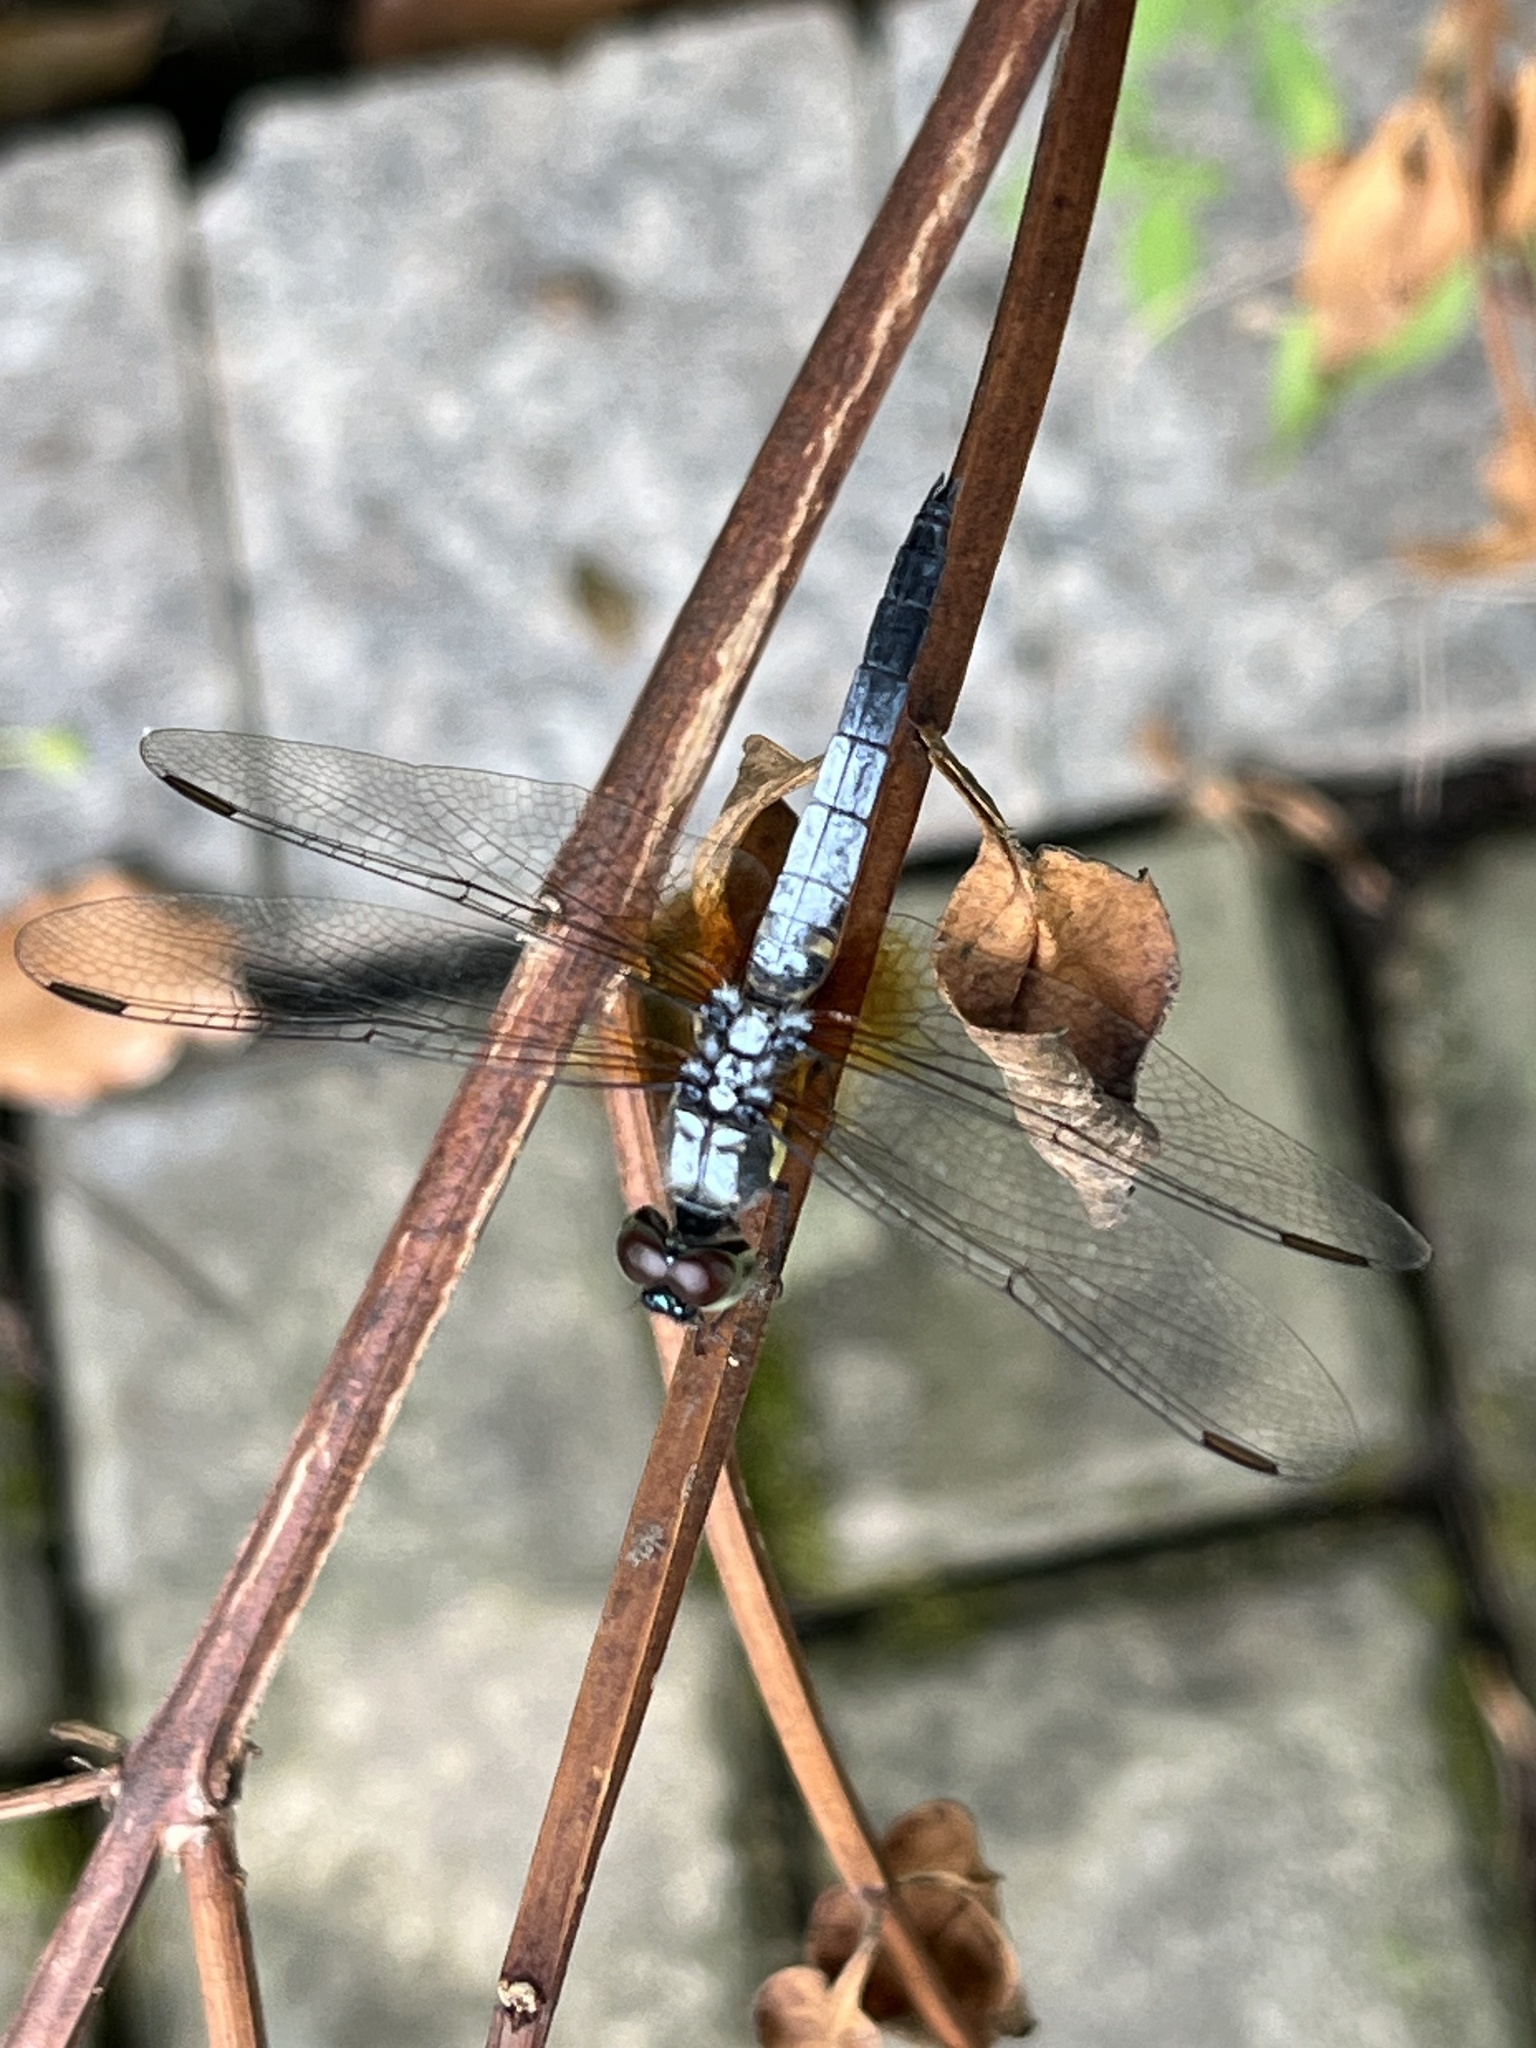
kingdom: Animalia
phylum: Arthropoda
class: Insecta
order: Odonata
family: Libellulidae
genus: Brachydiplax
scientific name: Brachydiplax chalybea
